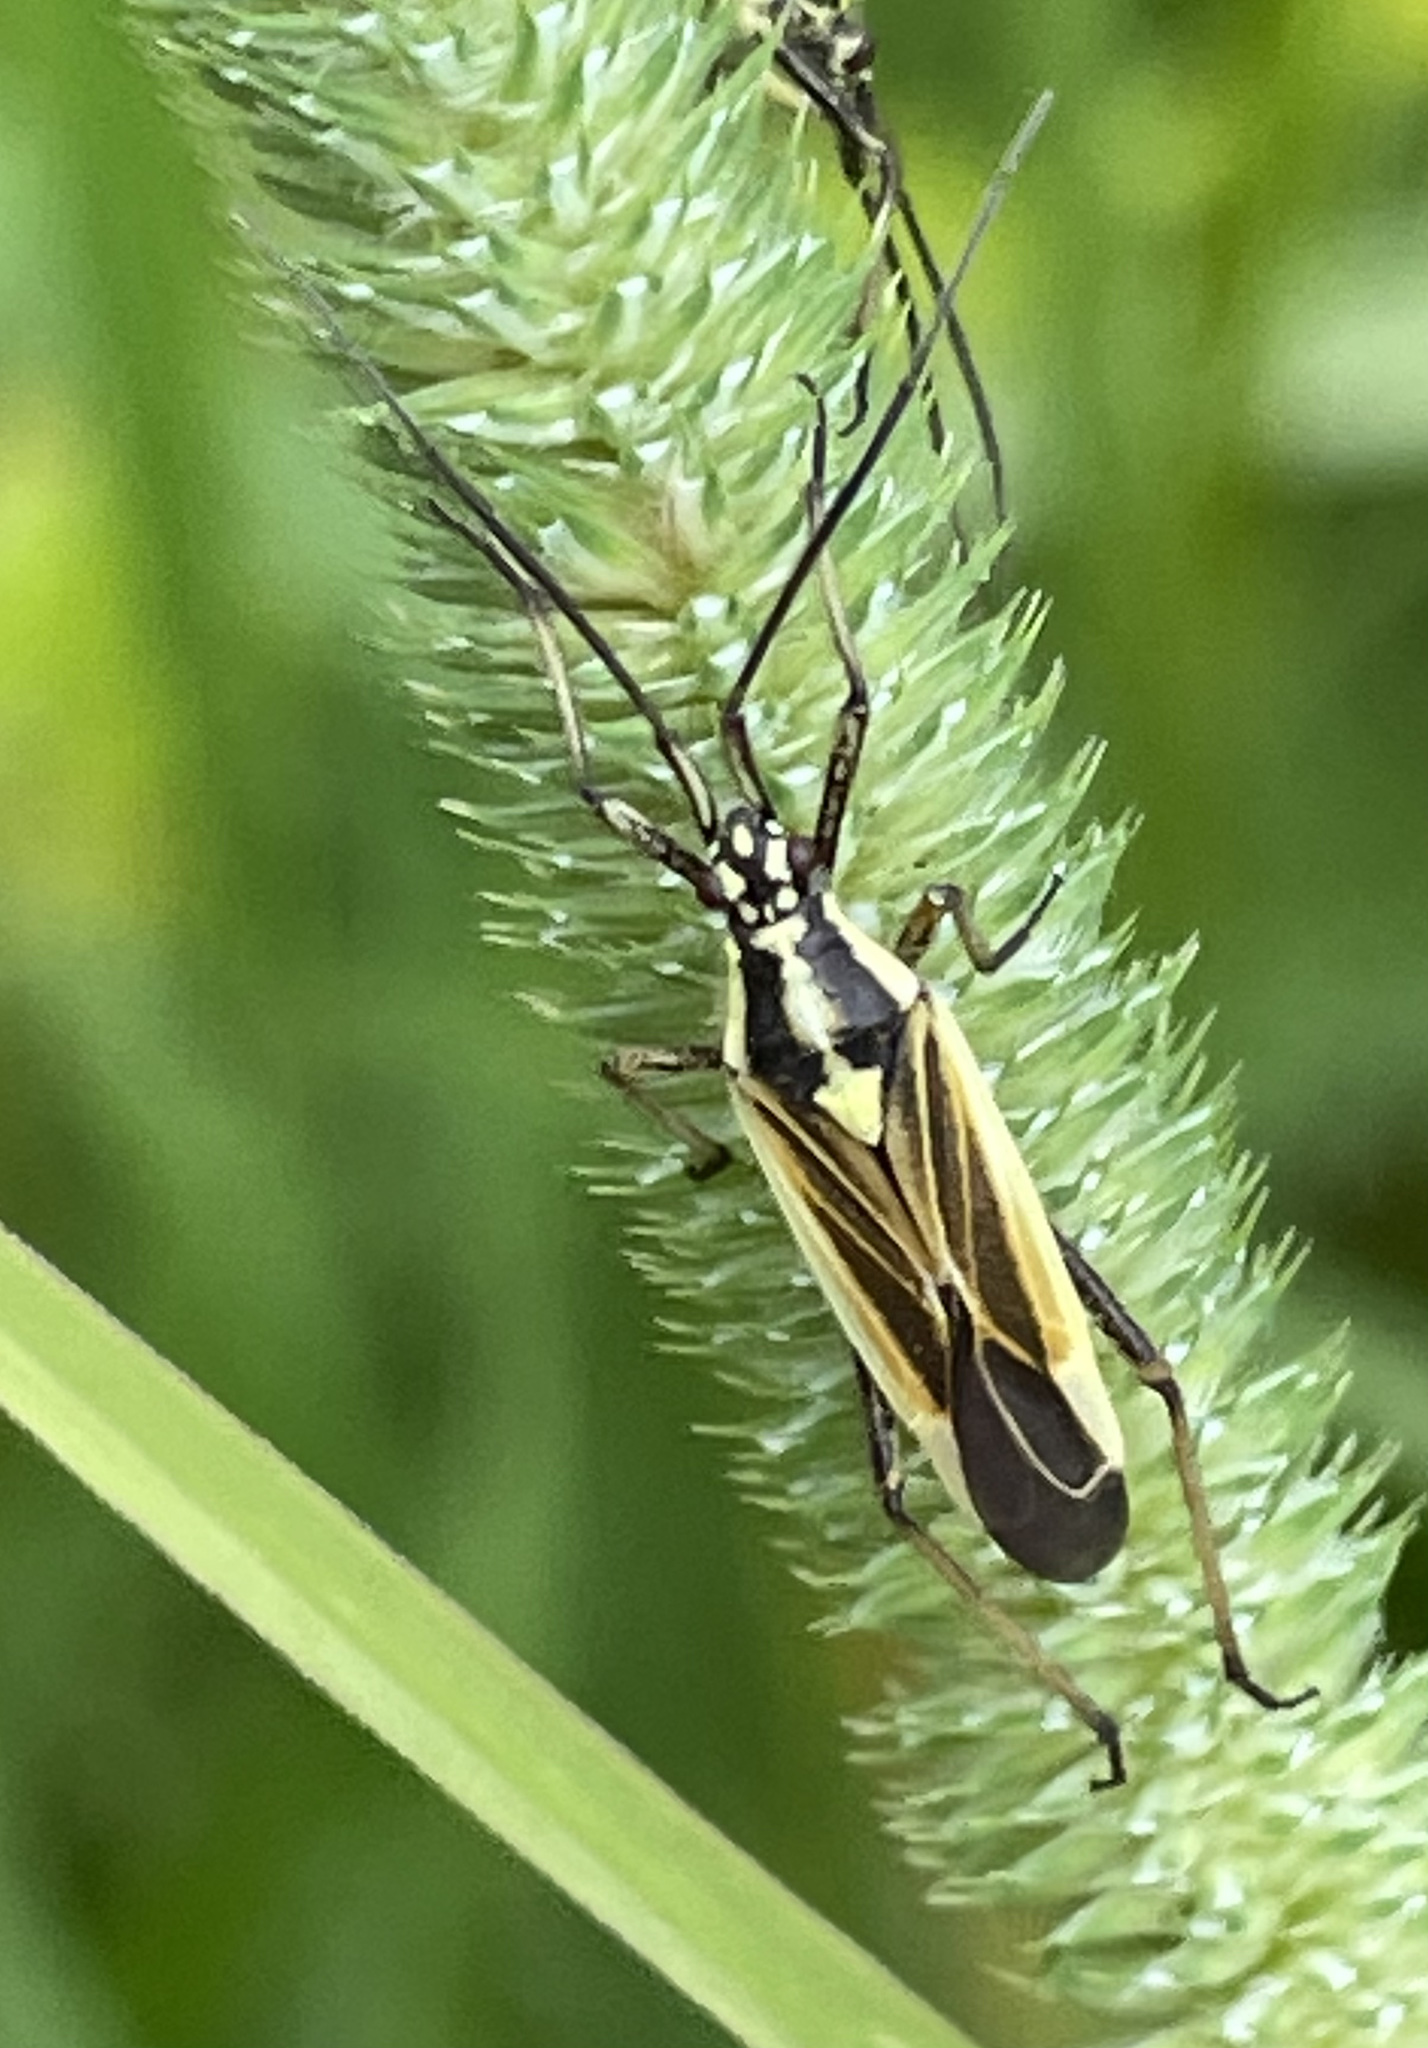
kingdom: Animalia
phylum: Arthropoda
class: Insecta
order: Hemiptera
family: Miridae
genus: Leptopterna
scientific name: Leptopterna dolabrata
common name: Meadow plant bug
